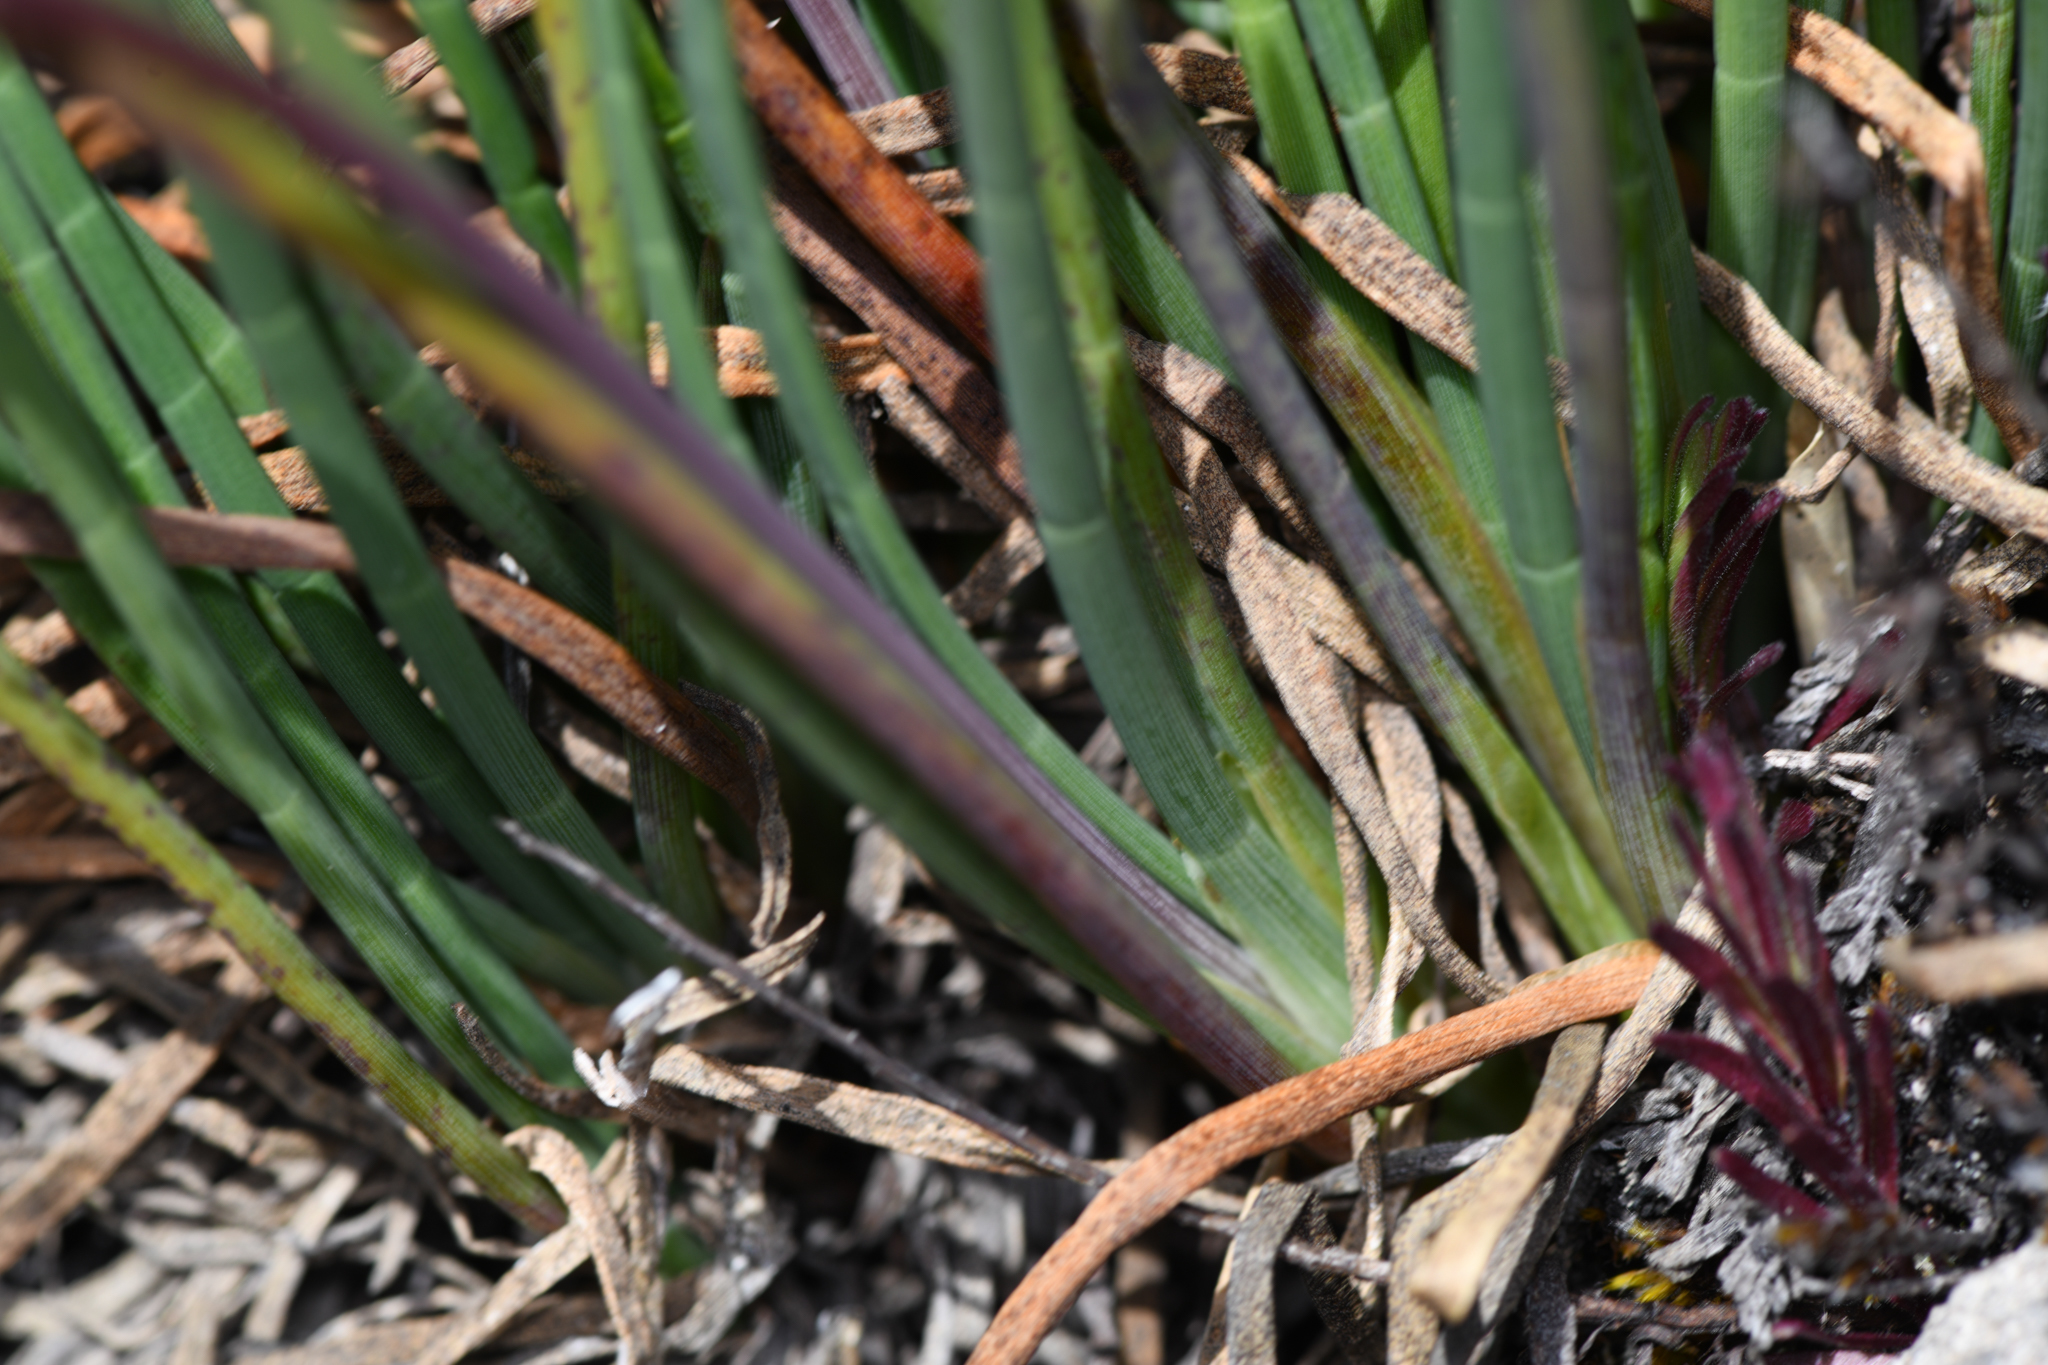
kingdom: Plantae
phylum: Tracheophyta
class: Magnoliopsida
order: Apiales
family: Apiaceae
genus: Ottoa
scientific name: Ottoa oenanthoides
